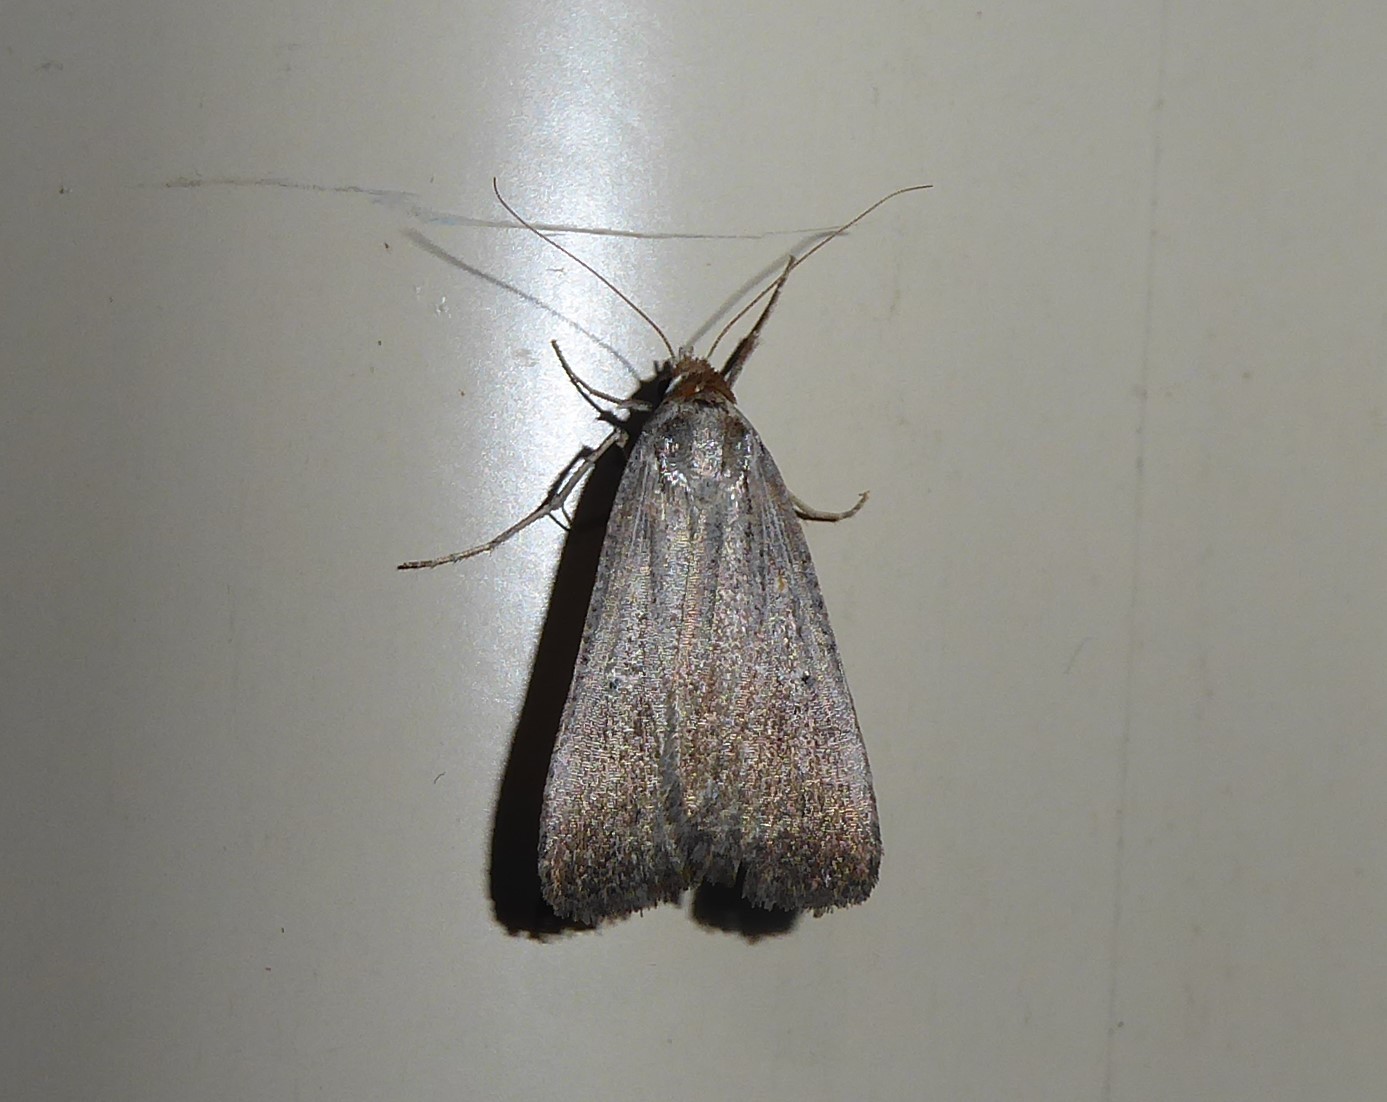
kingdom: Animalia
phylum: Arthropoda
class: Insecta
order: Lepidoptera
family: Noctuidae
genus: Tathorhynchus
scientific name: Tathorhynchus fallax
